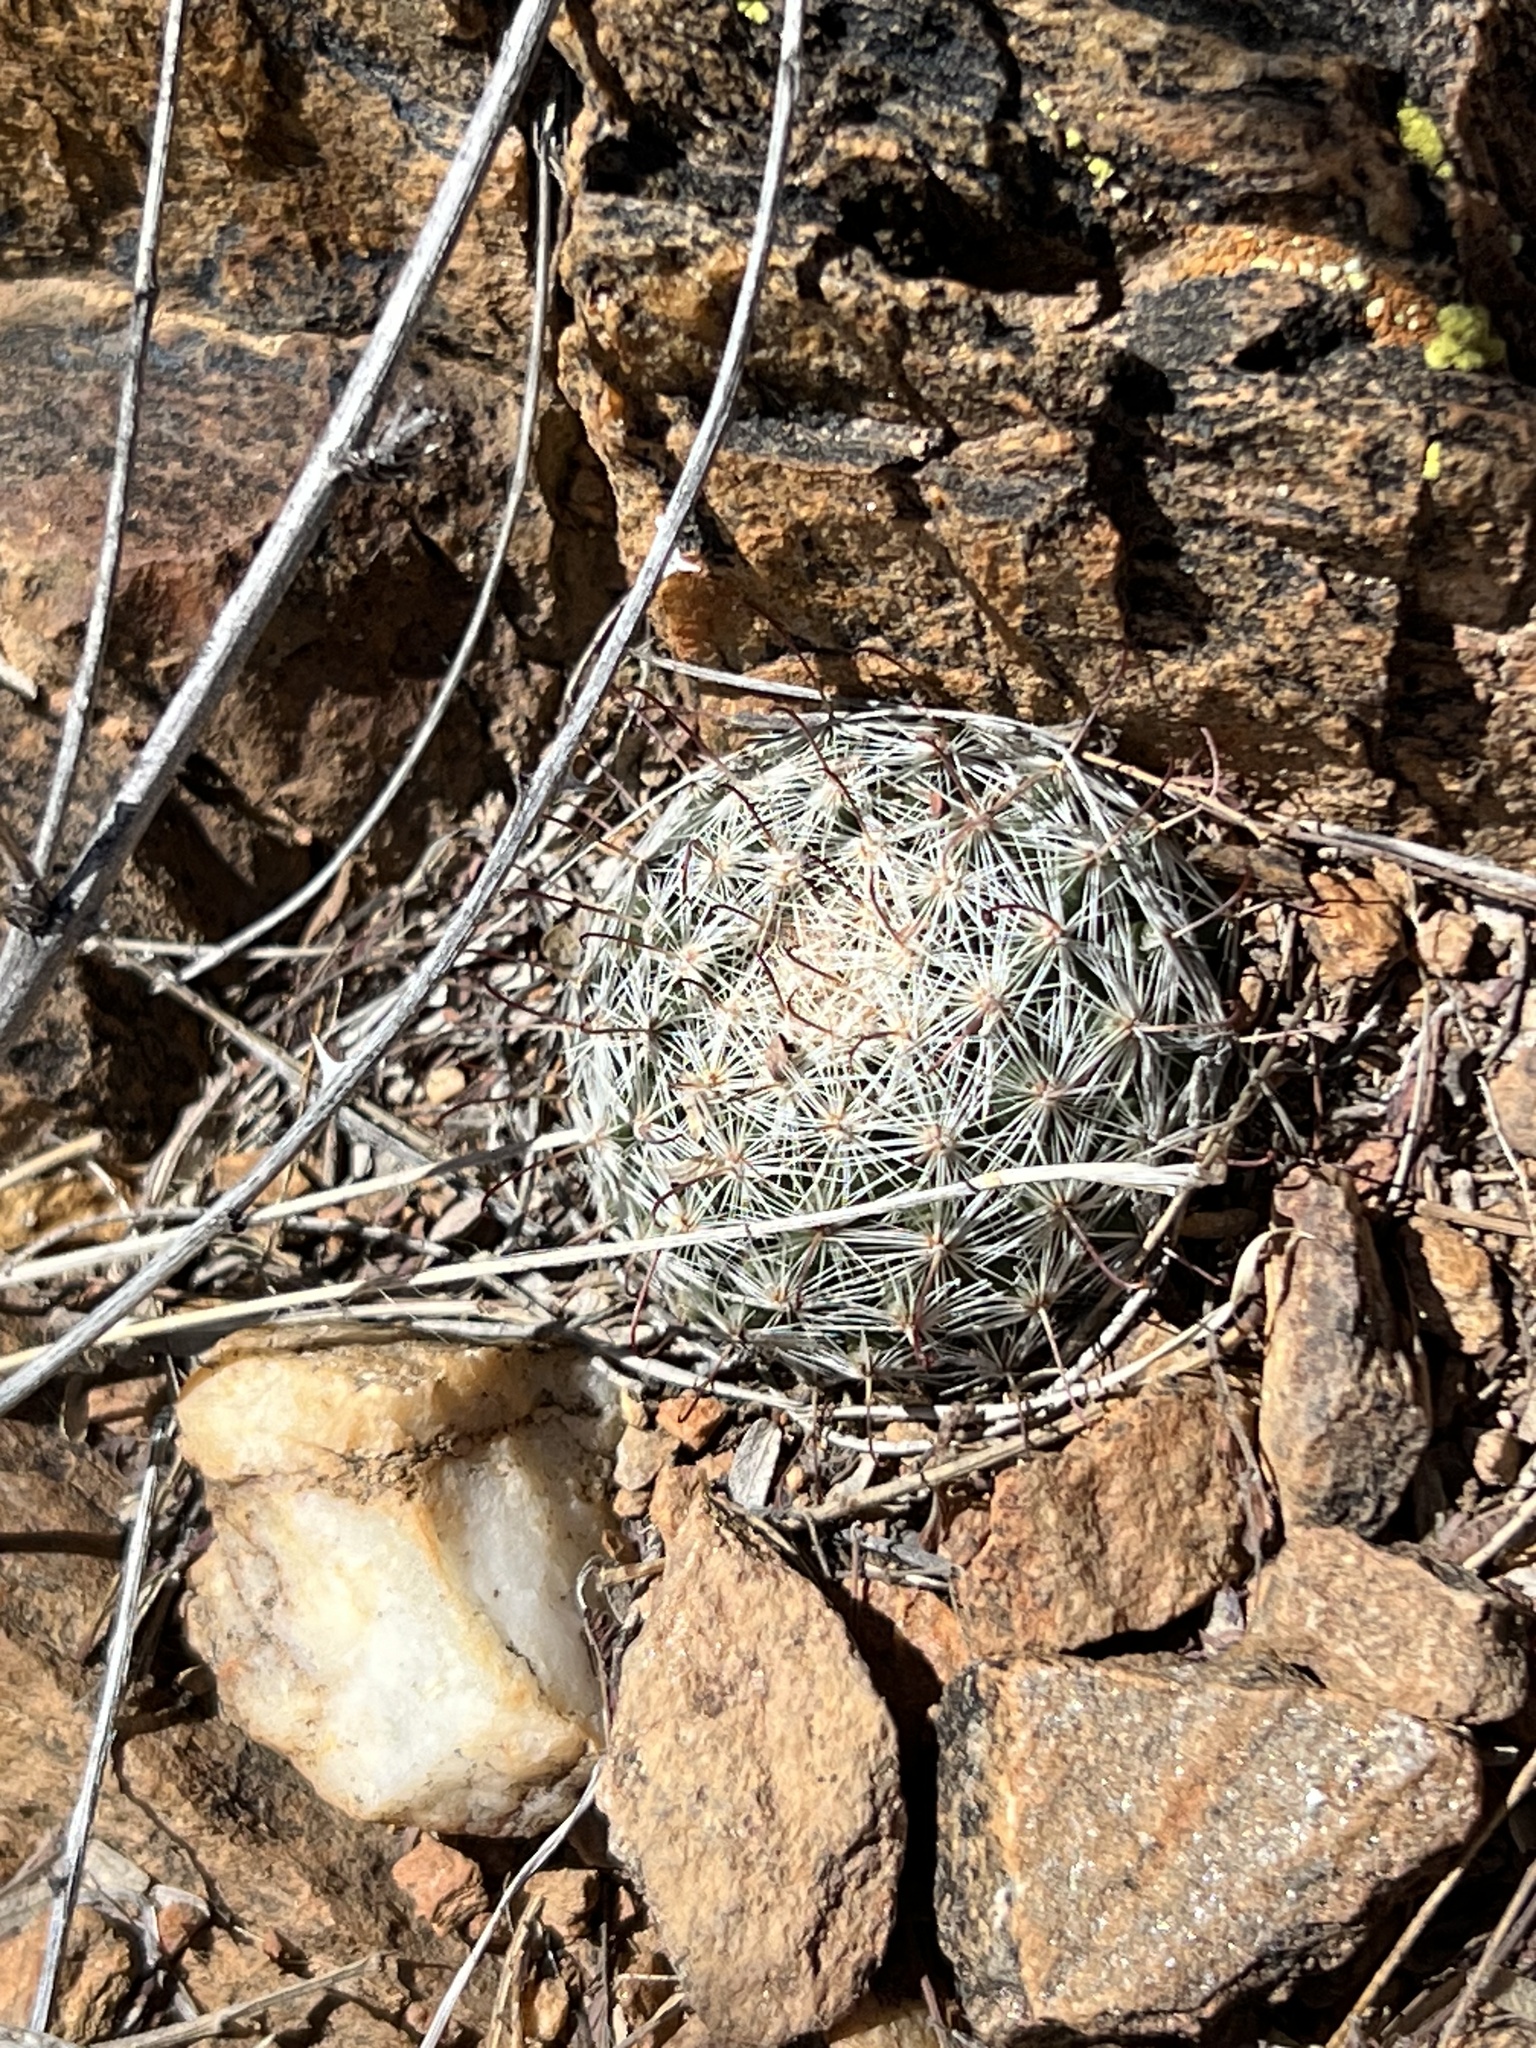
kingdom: Plantae
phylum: Tracheophyta
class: Magnoliopsida
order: Caryophyllales
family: Cactaceae
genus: Cochemiea
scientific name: Cochemiea grahamii
